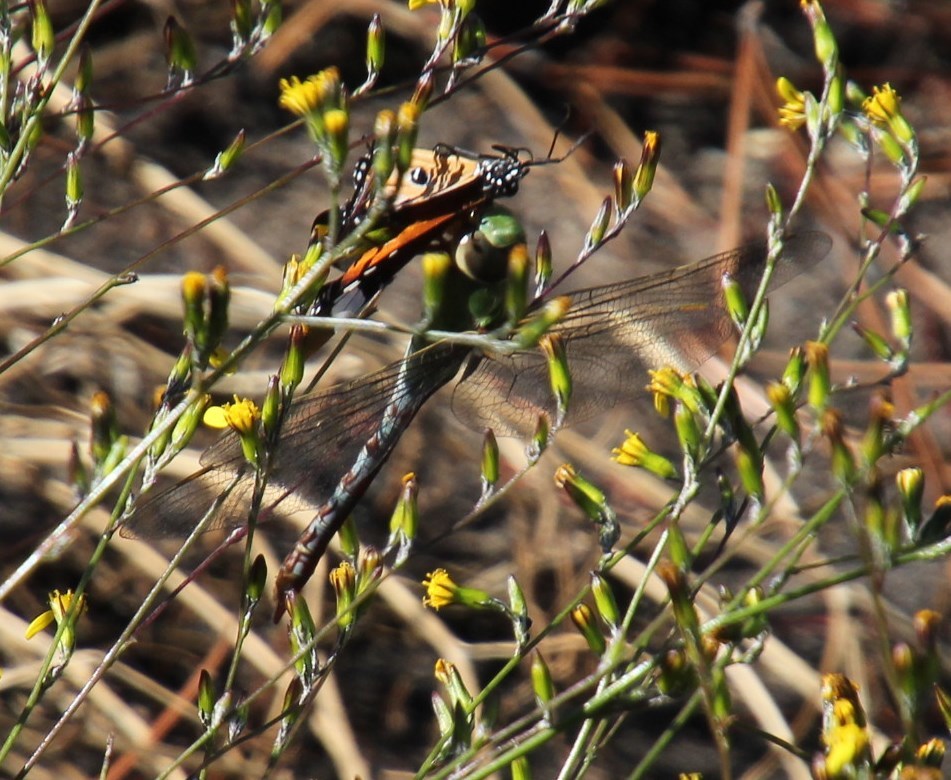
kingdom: Plantae
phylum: Tracheophyta
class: Magnoliopsida
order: Asterales
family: Asteraceae
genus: Senecio
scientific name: Senecio pubigerus
